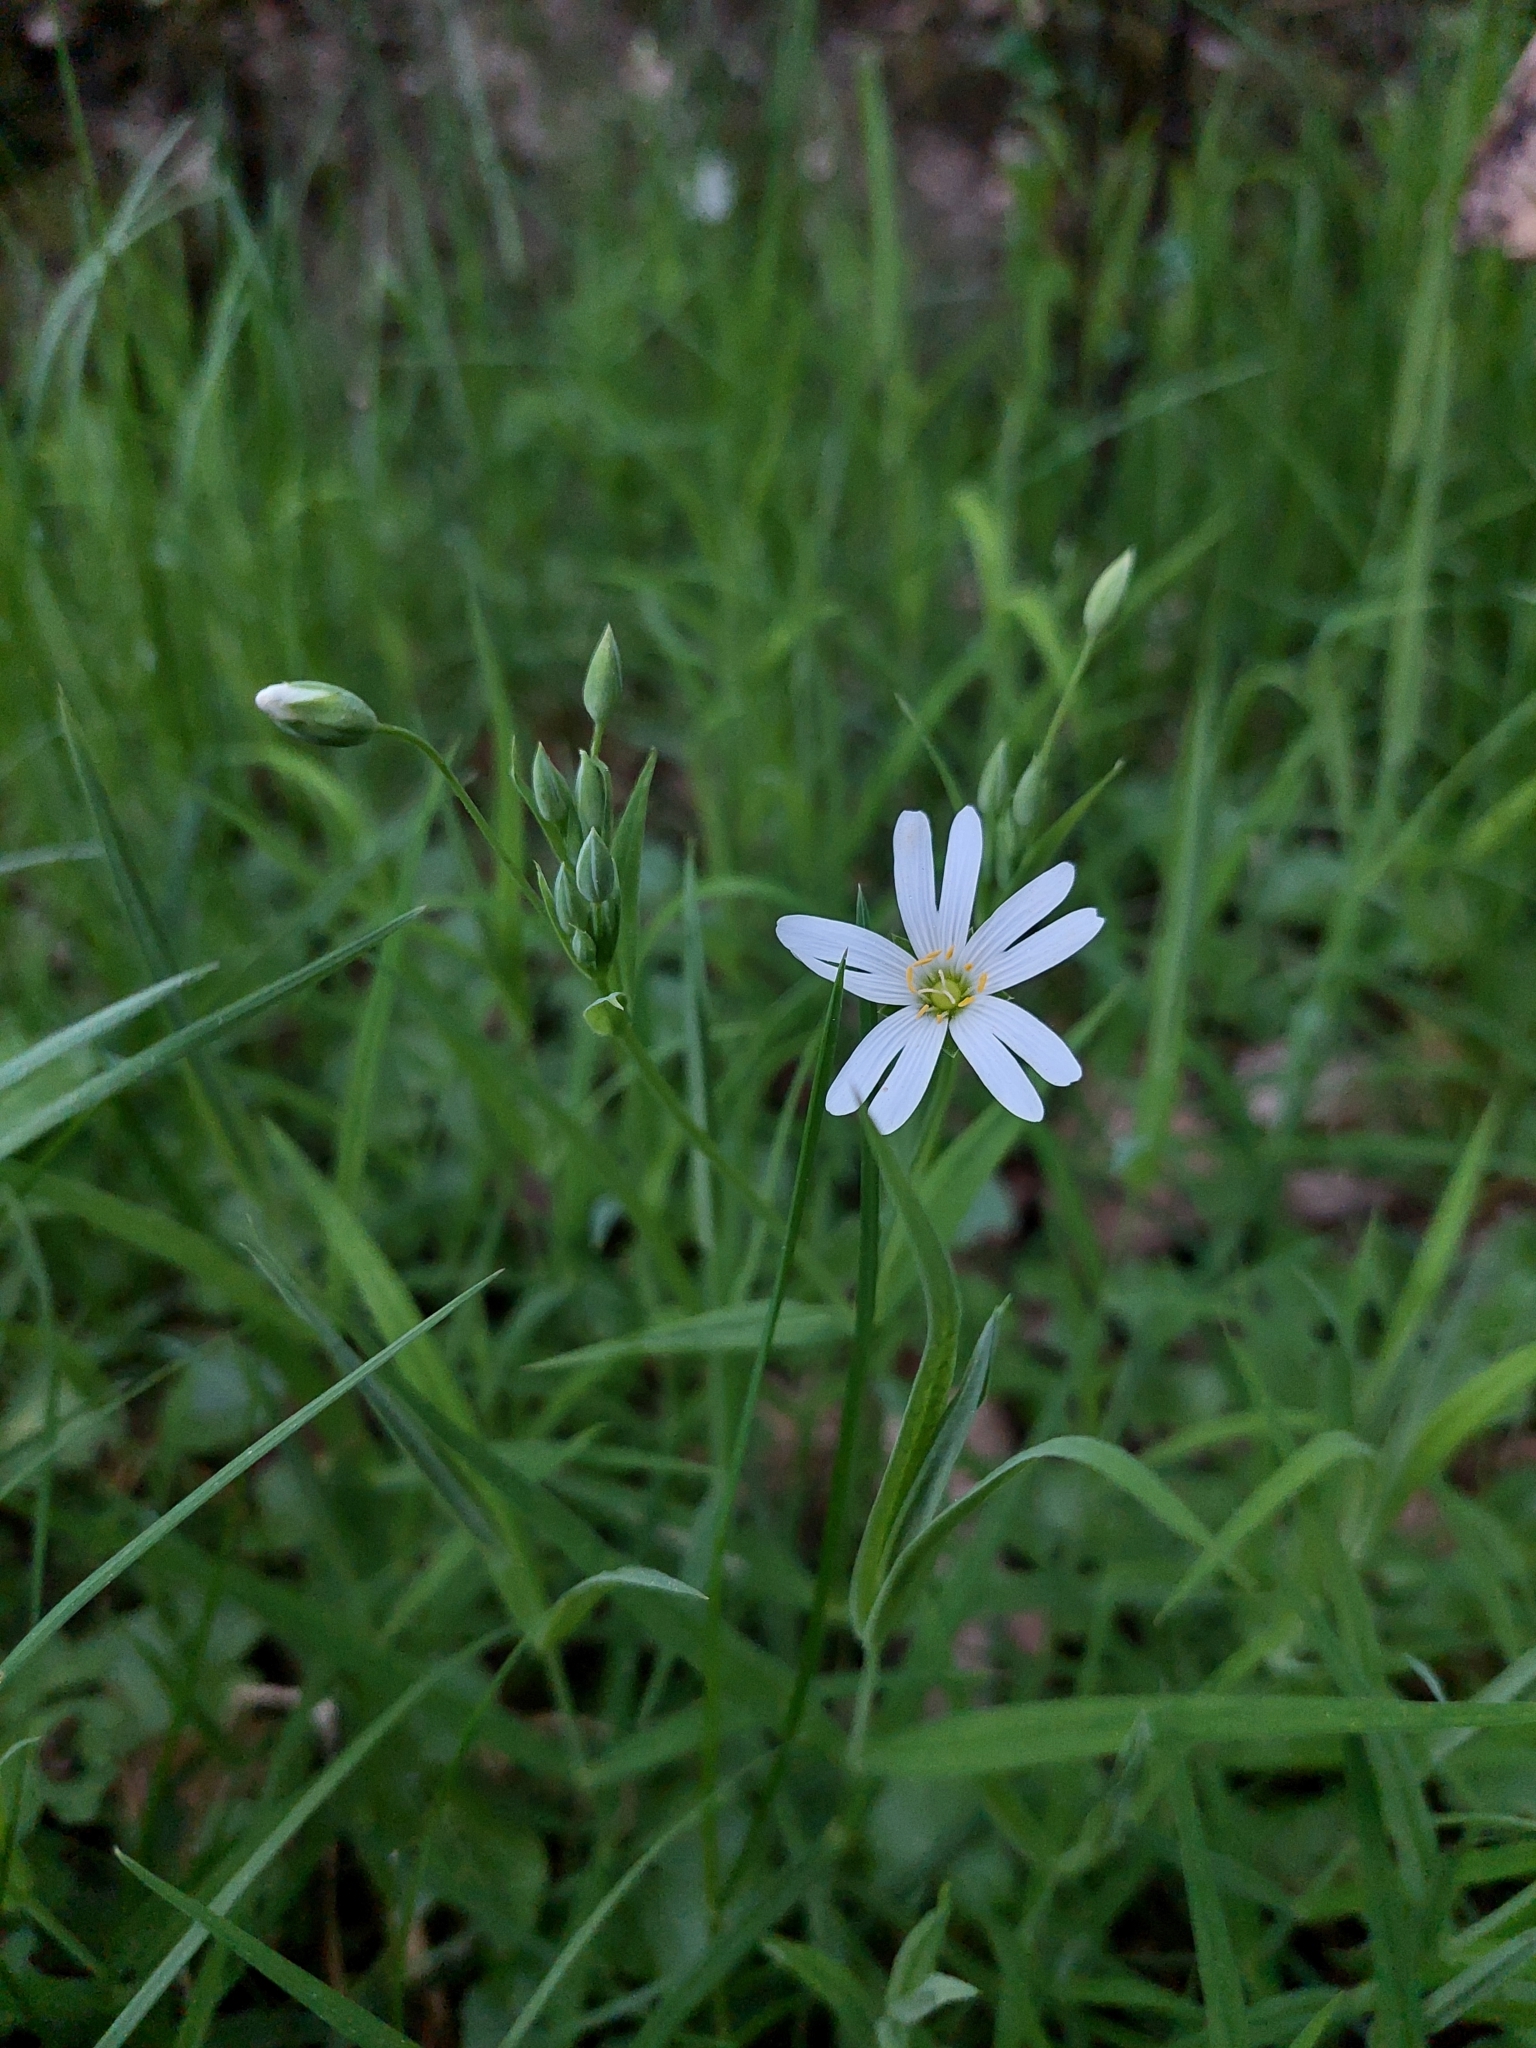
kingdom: Plantae
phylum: Tracheophyta
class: Magnoliopsida
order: Caryophyllales
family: Caryophyllaceae
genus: Rabelera
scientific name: Rabelera holostea
